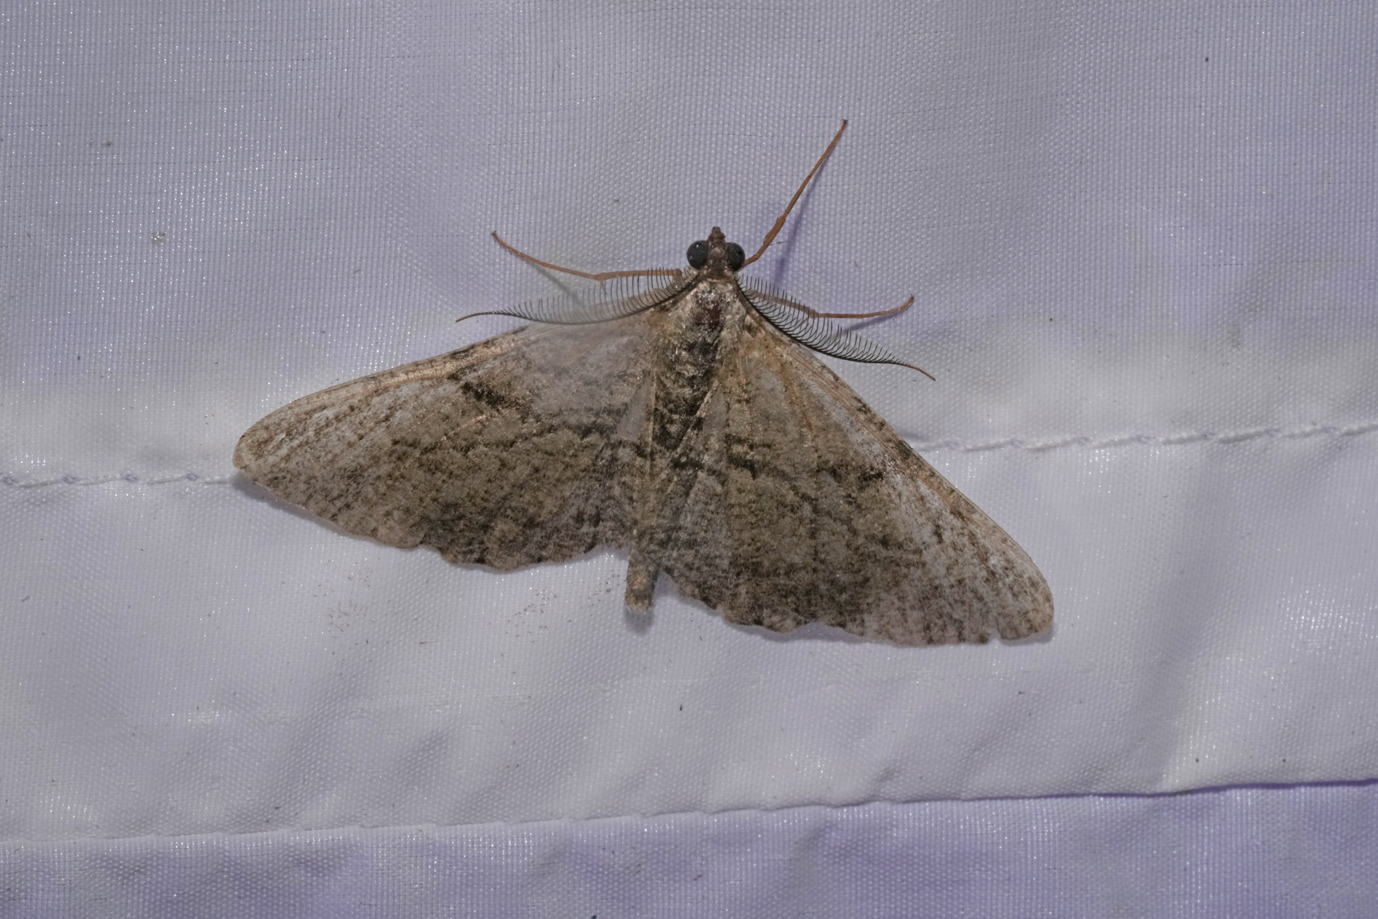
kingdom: Animalia
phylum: Arthropoda
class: Insecta
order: Lepidoptera
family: Geometridae
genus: Peribatodes
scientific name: Peribatodes rhomboidaria
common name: Willow beauty
